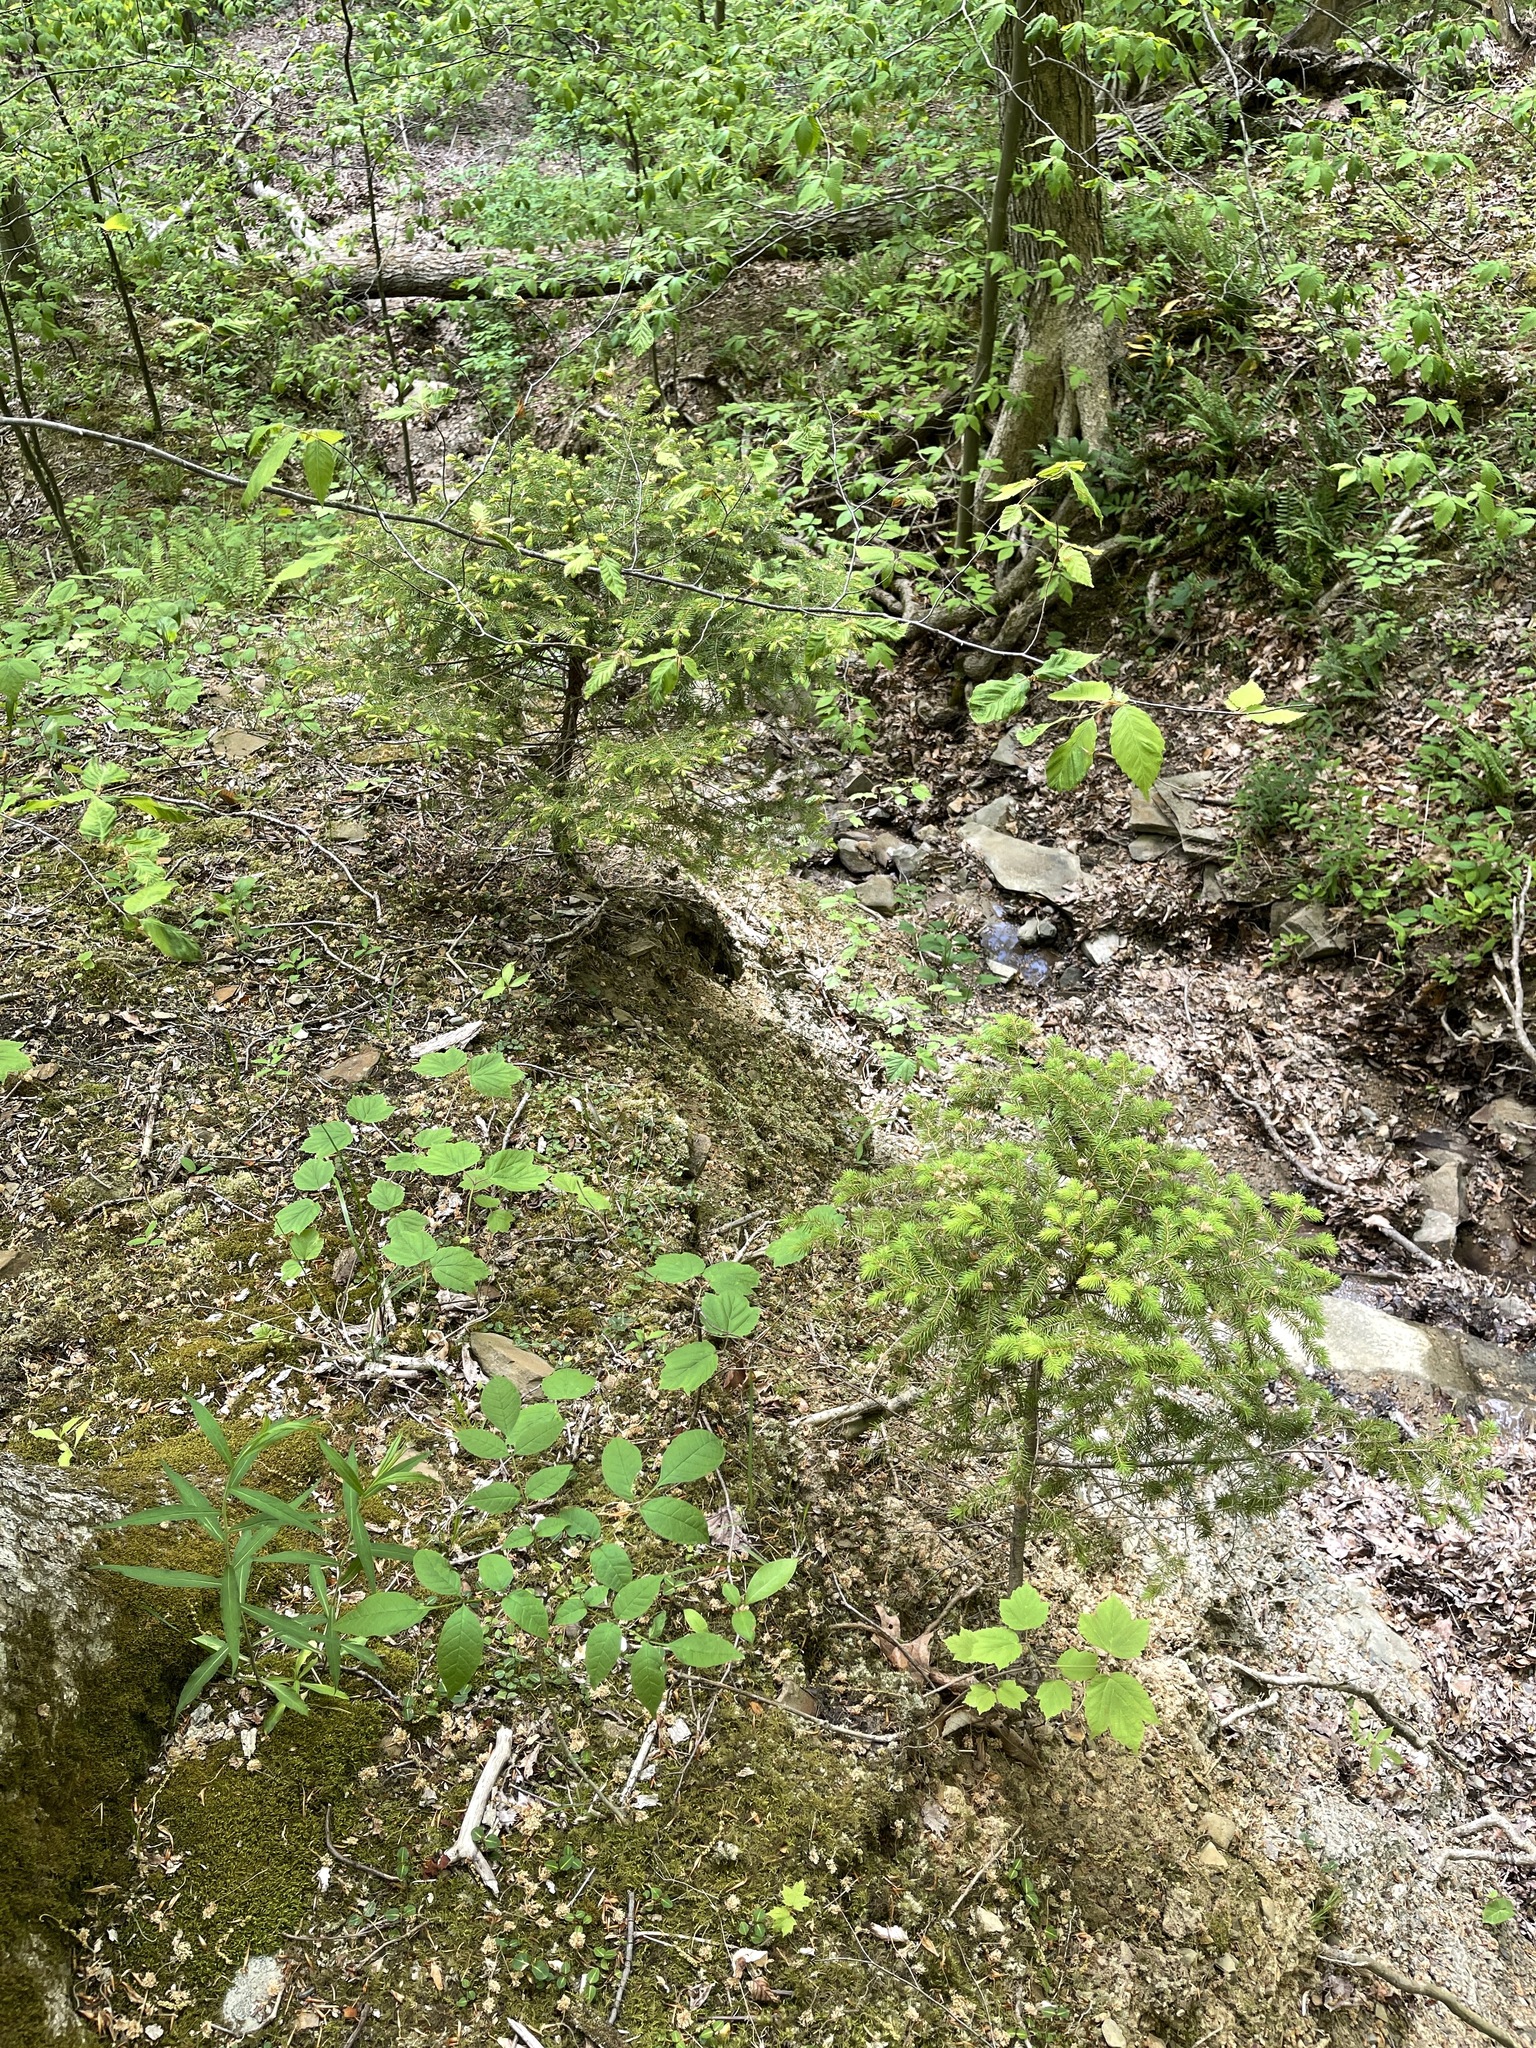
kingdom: Plantae
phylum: Tracheophyta
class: Pinopsida
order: Pinales
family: Pinaceae
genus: Picea
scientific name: Picea abies
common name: Norway spruce
